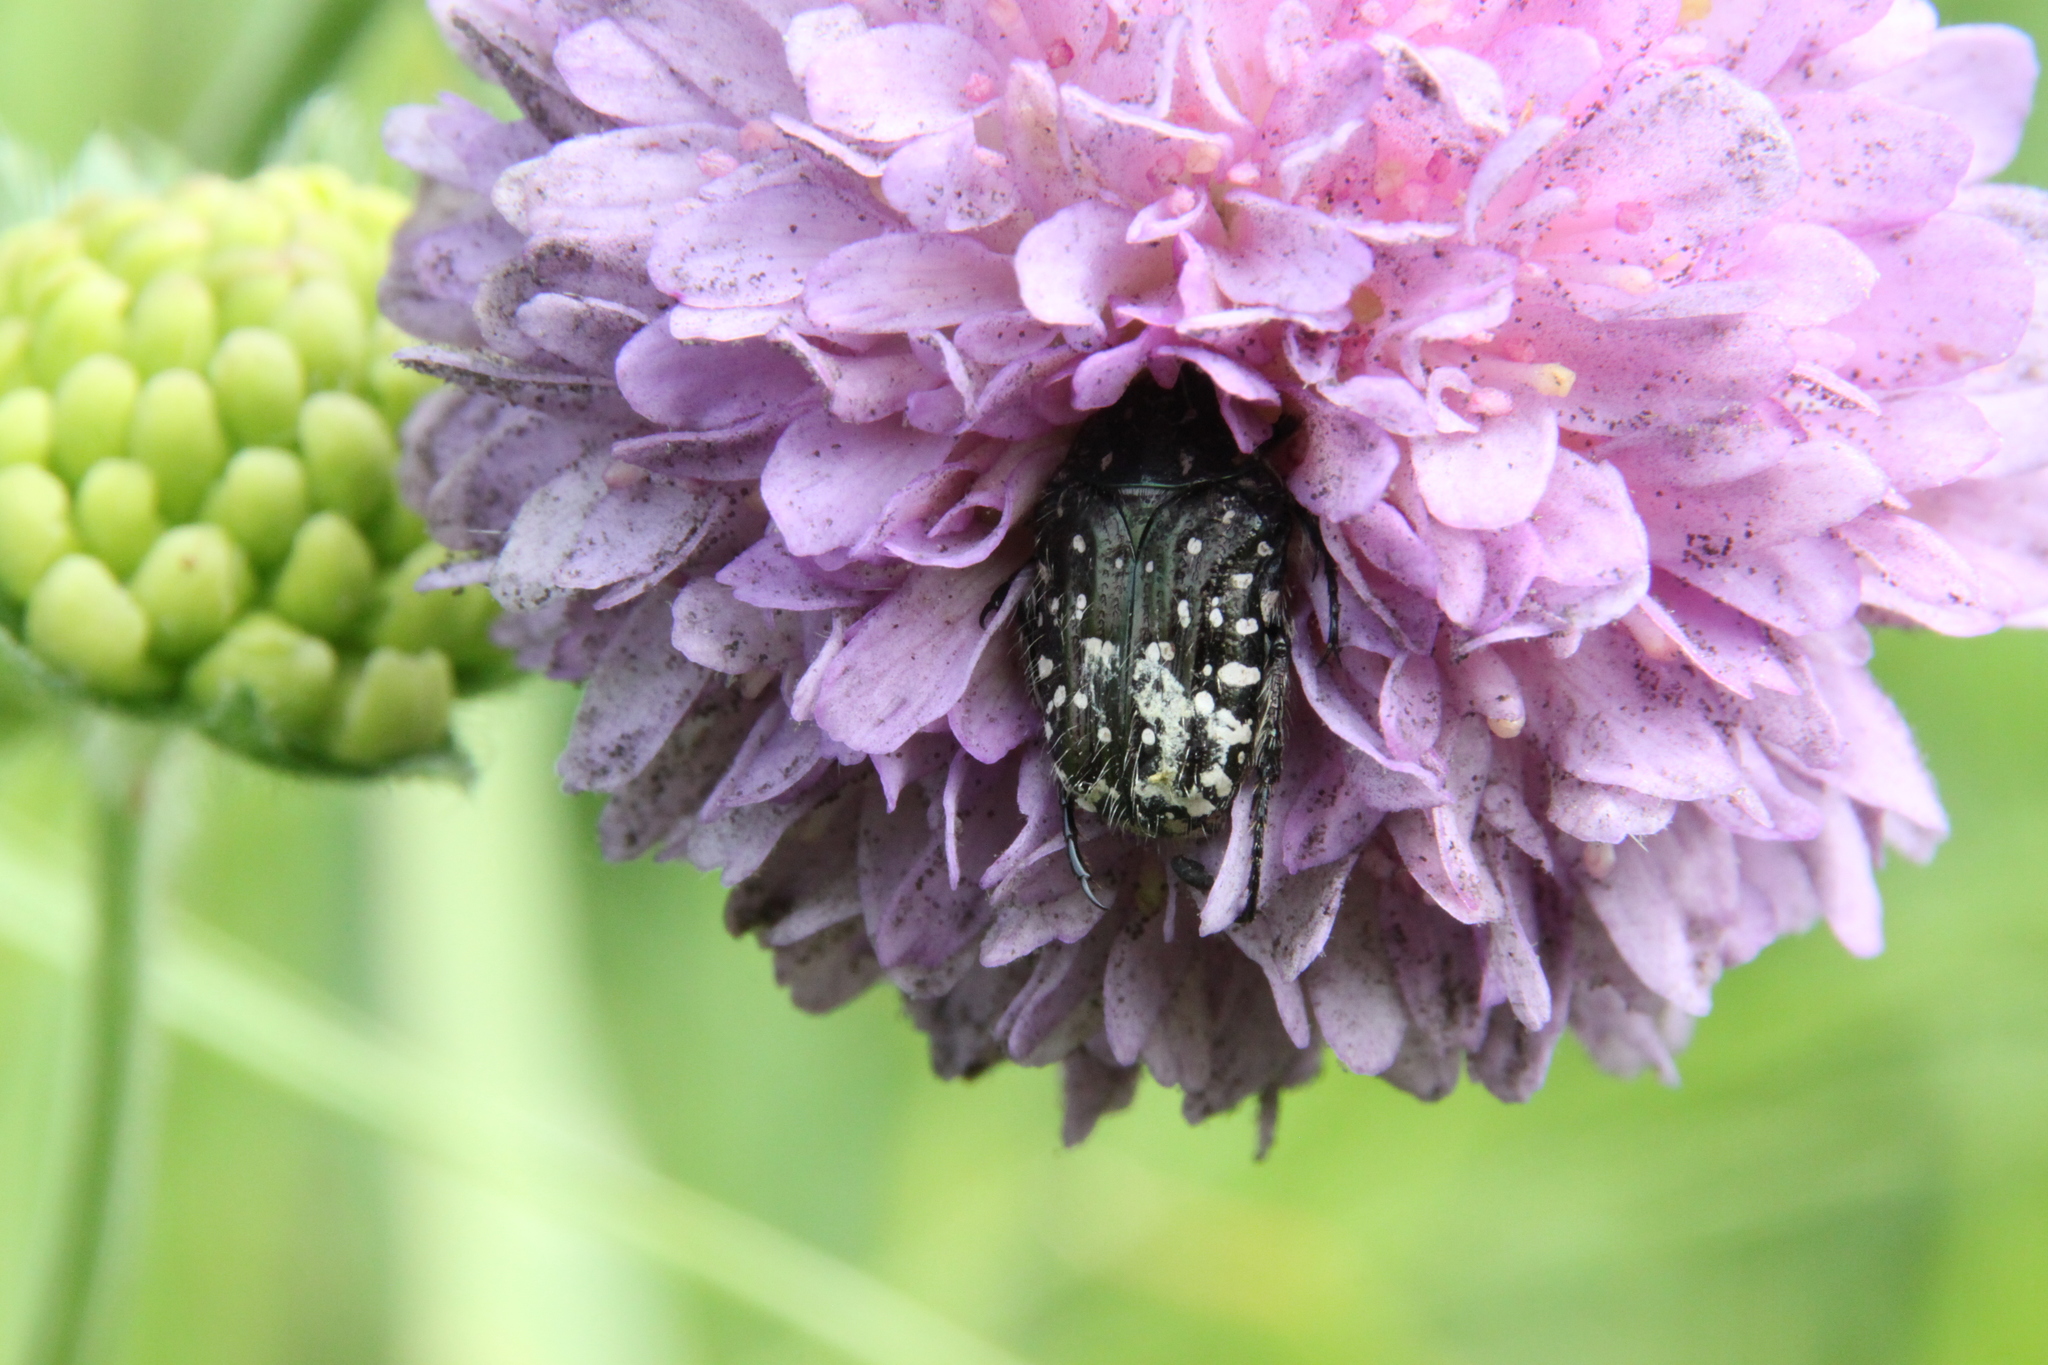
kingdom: Animalia
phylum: Arthropoda
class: Insecta
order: Coleoptera
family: Scarabaeidae
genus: Oxythyrea
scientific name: Oxythyrea funesta
